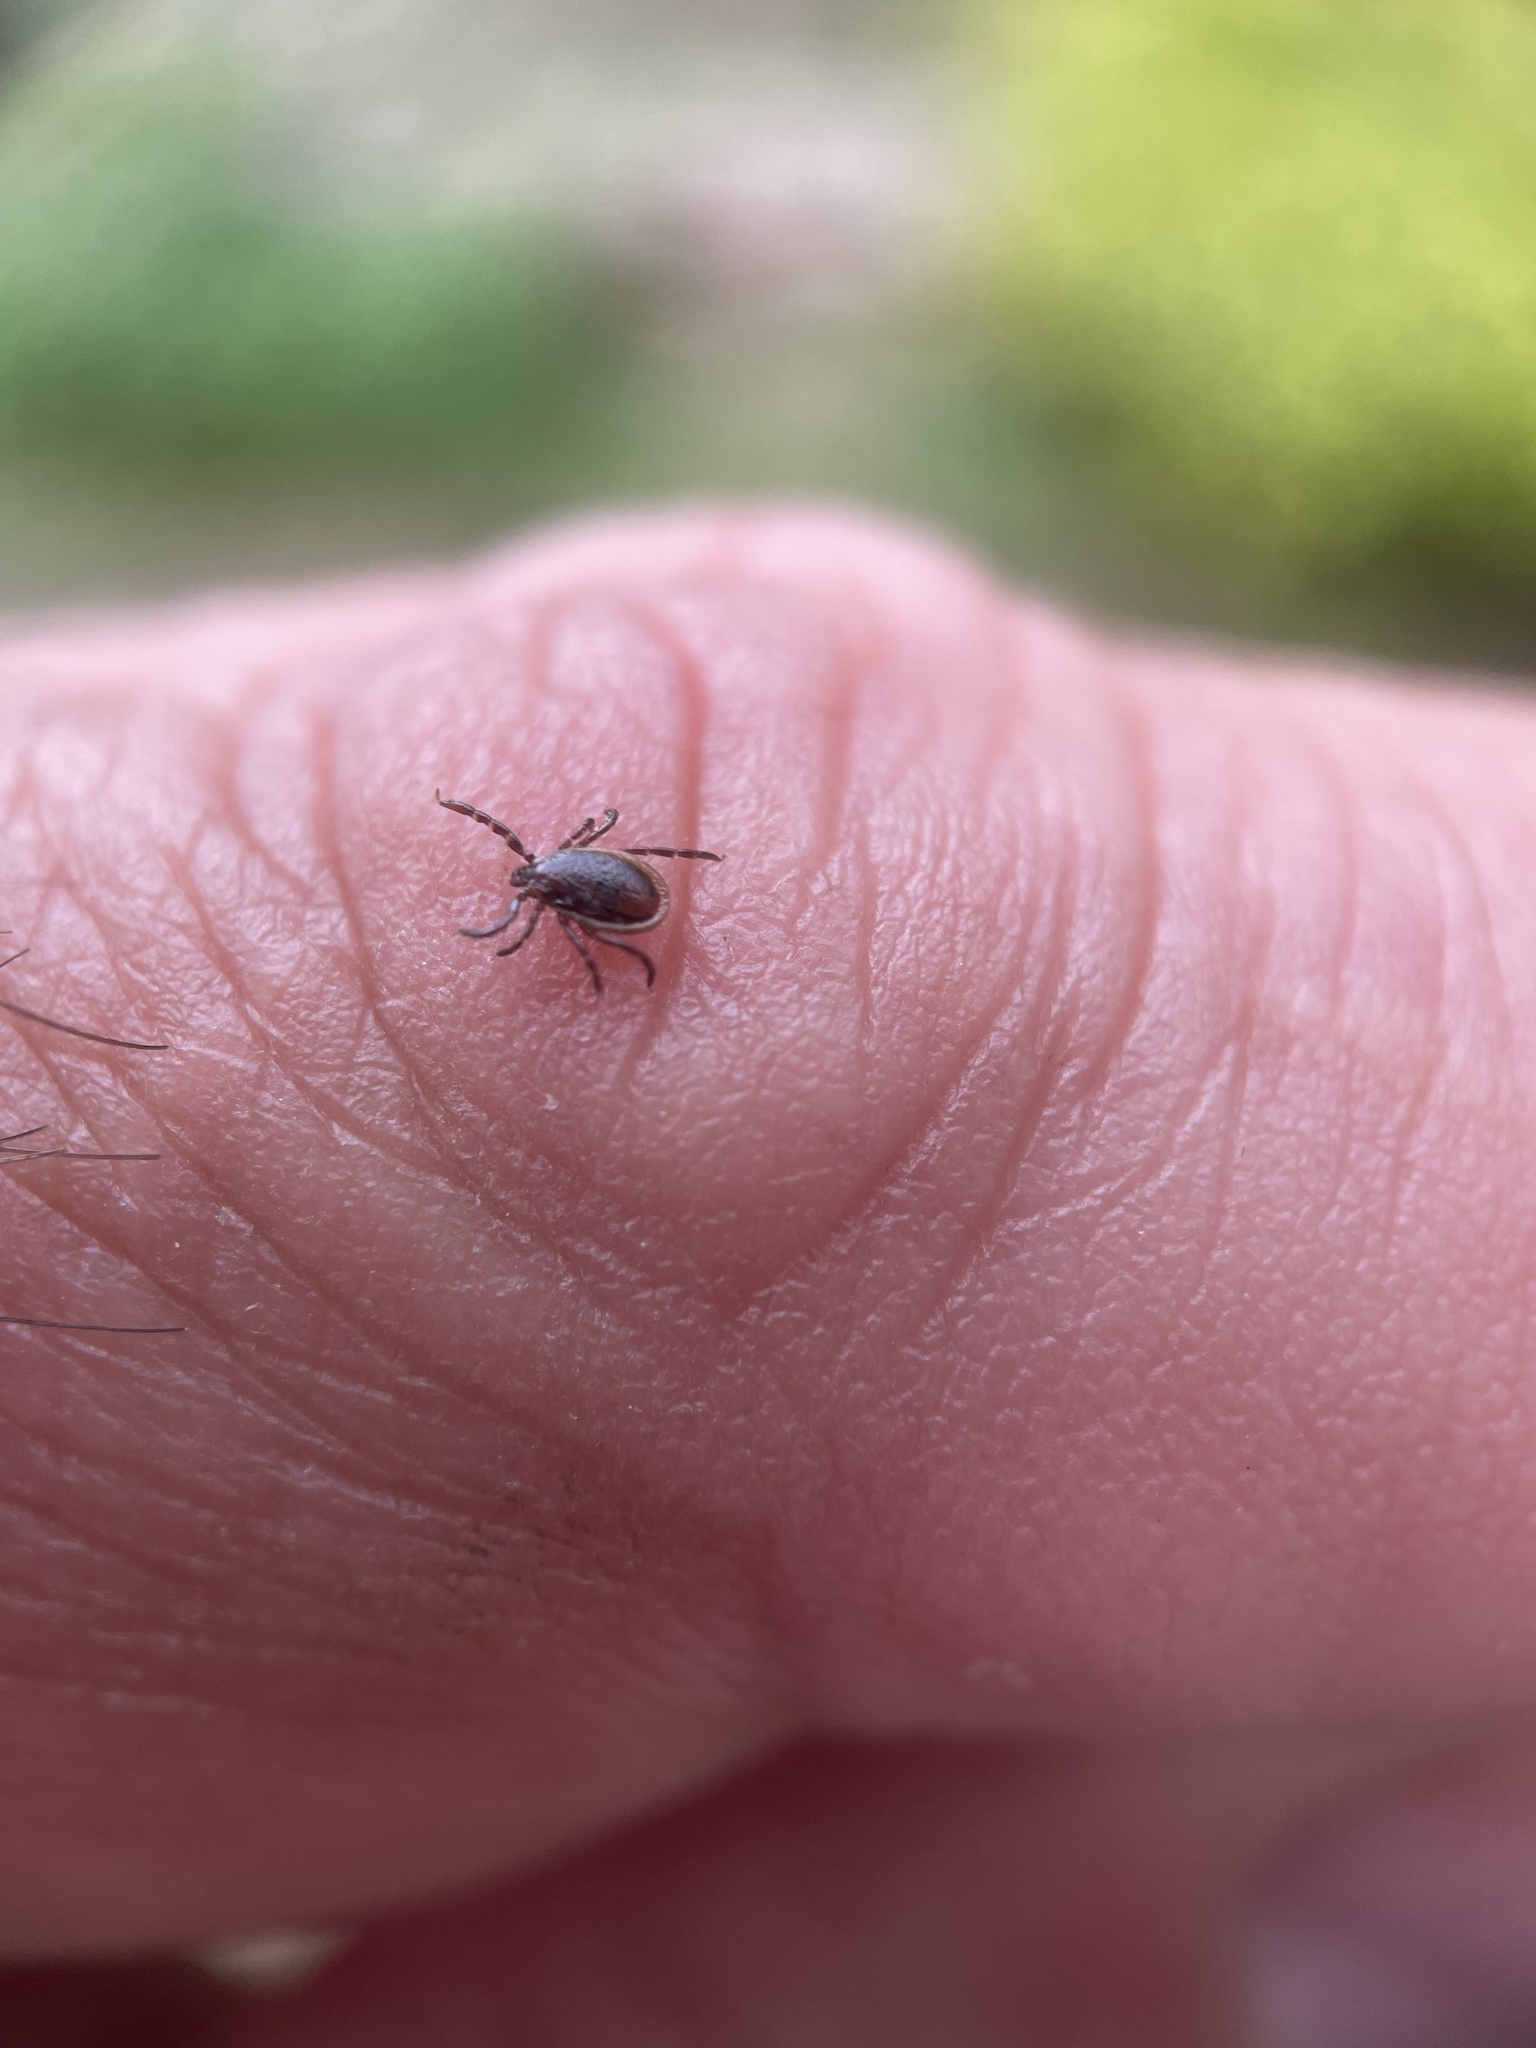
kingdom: Animalia
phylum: Arthropoda
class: Arachnida
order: Ixodida
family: Ixodidae
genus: Ixodes
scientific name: Ixodes scapularis
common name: Black legged tick
